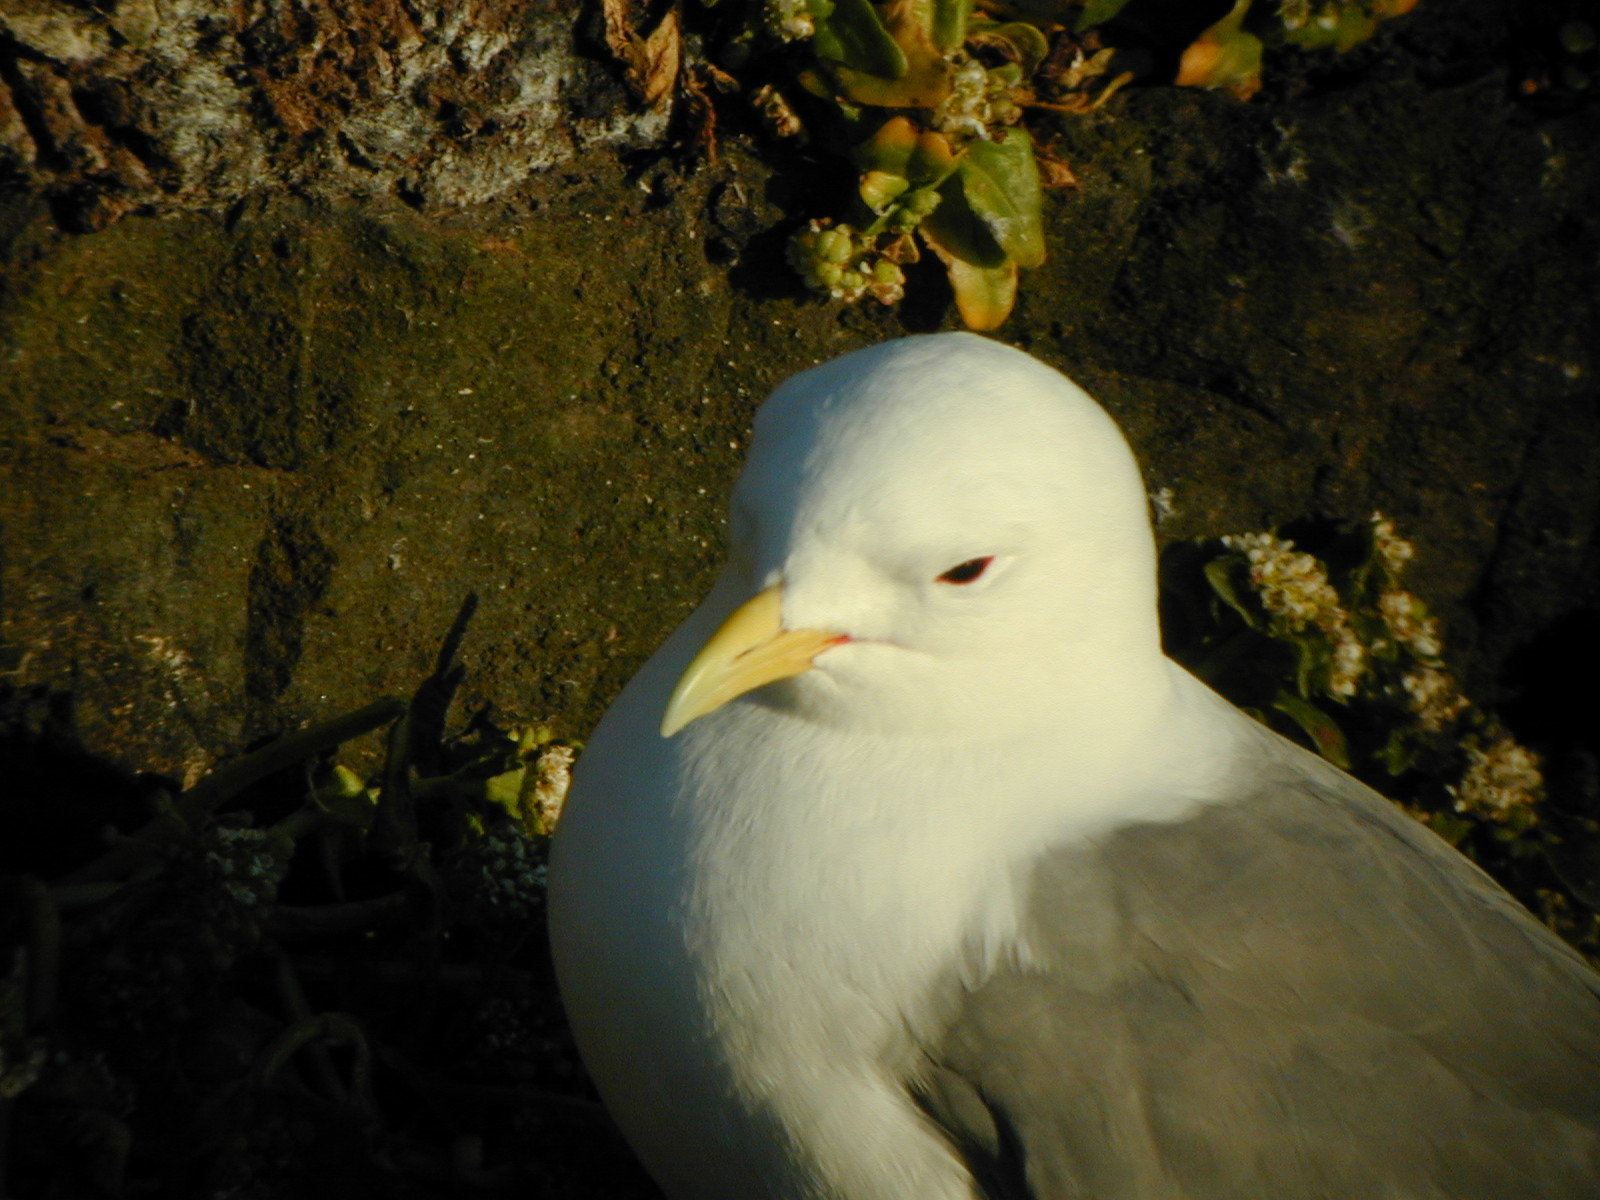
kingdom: Animalia
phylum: Chordata
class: Aves
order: Charadriiformes
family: Laridae
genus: Rissa
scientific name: Rissa tridactyla
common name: Black-legged kittiwake
